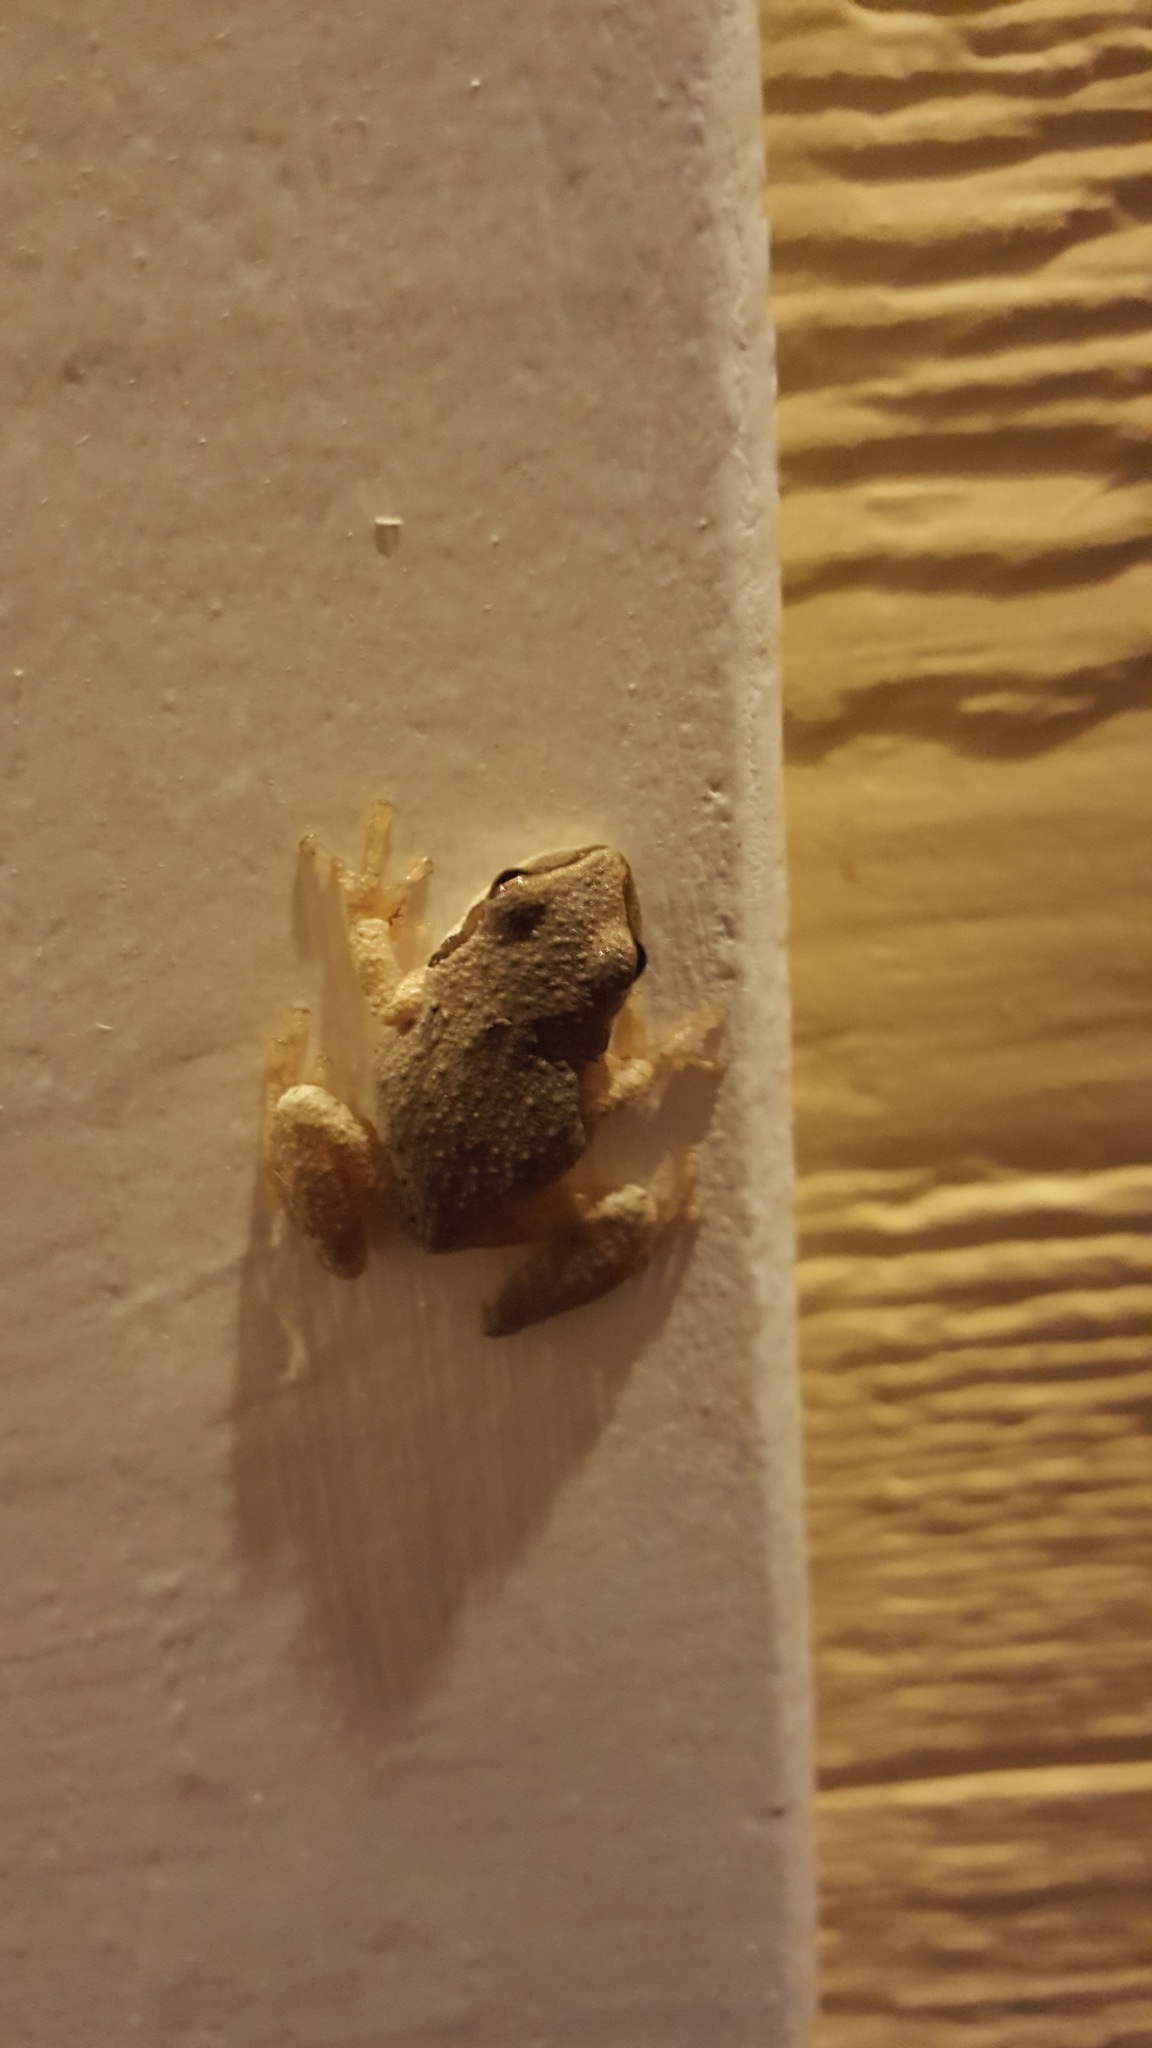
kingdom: Animalia
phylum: Chordata
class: Amphibia
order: Anura
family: Hylidae
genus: Pseudacris
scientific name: Pseudacris regilla
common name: Pacific chorus frog
